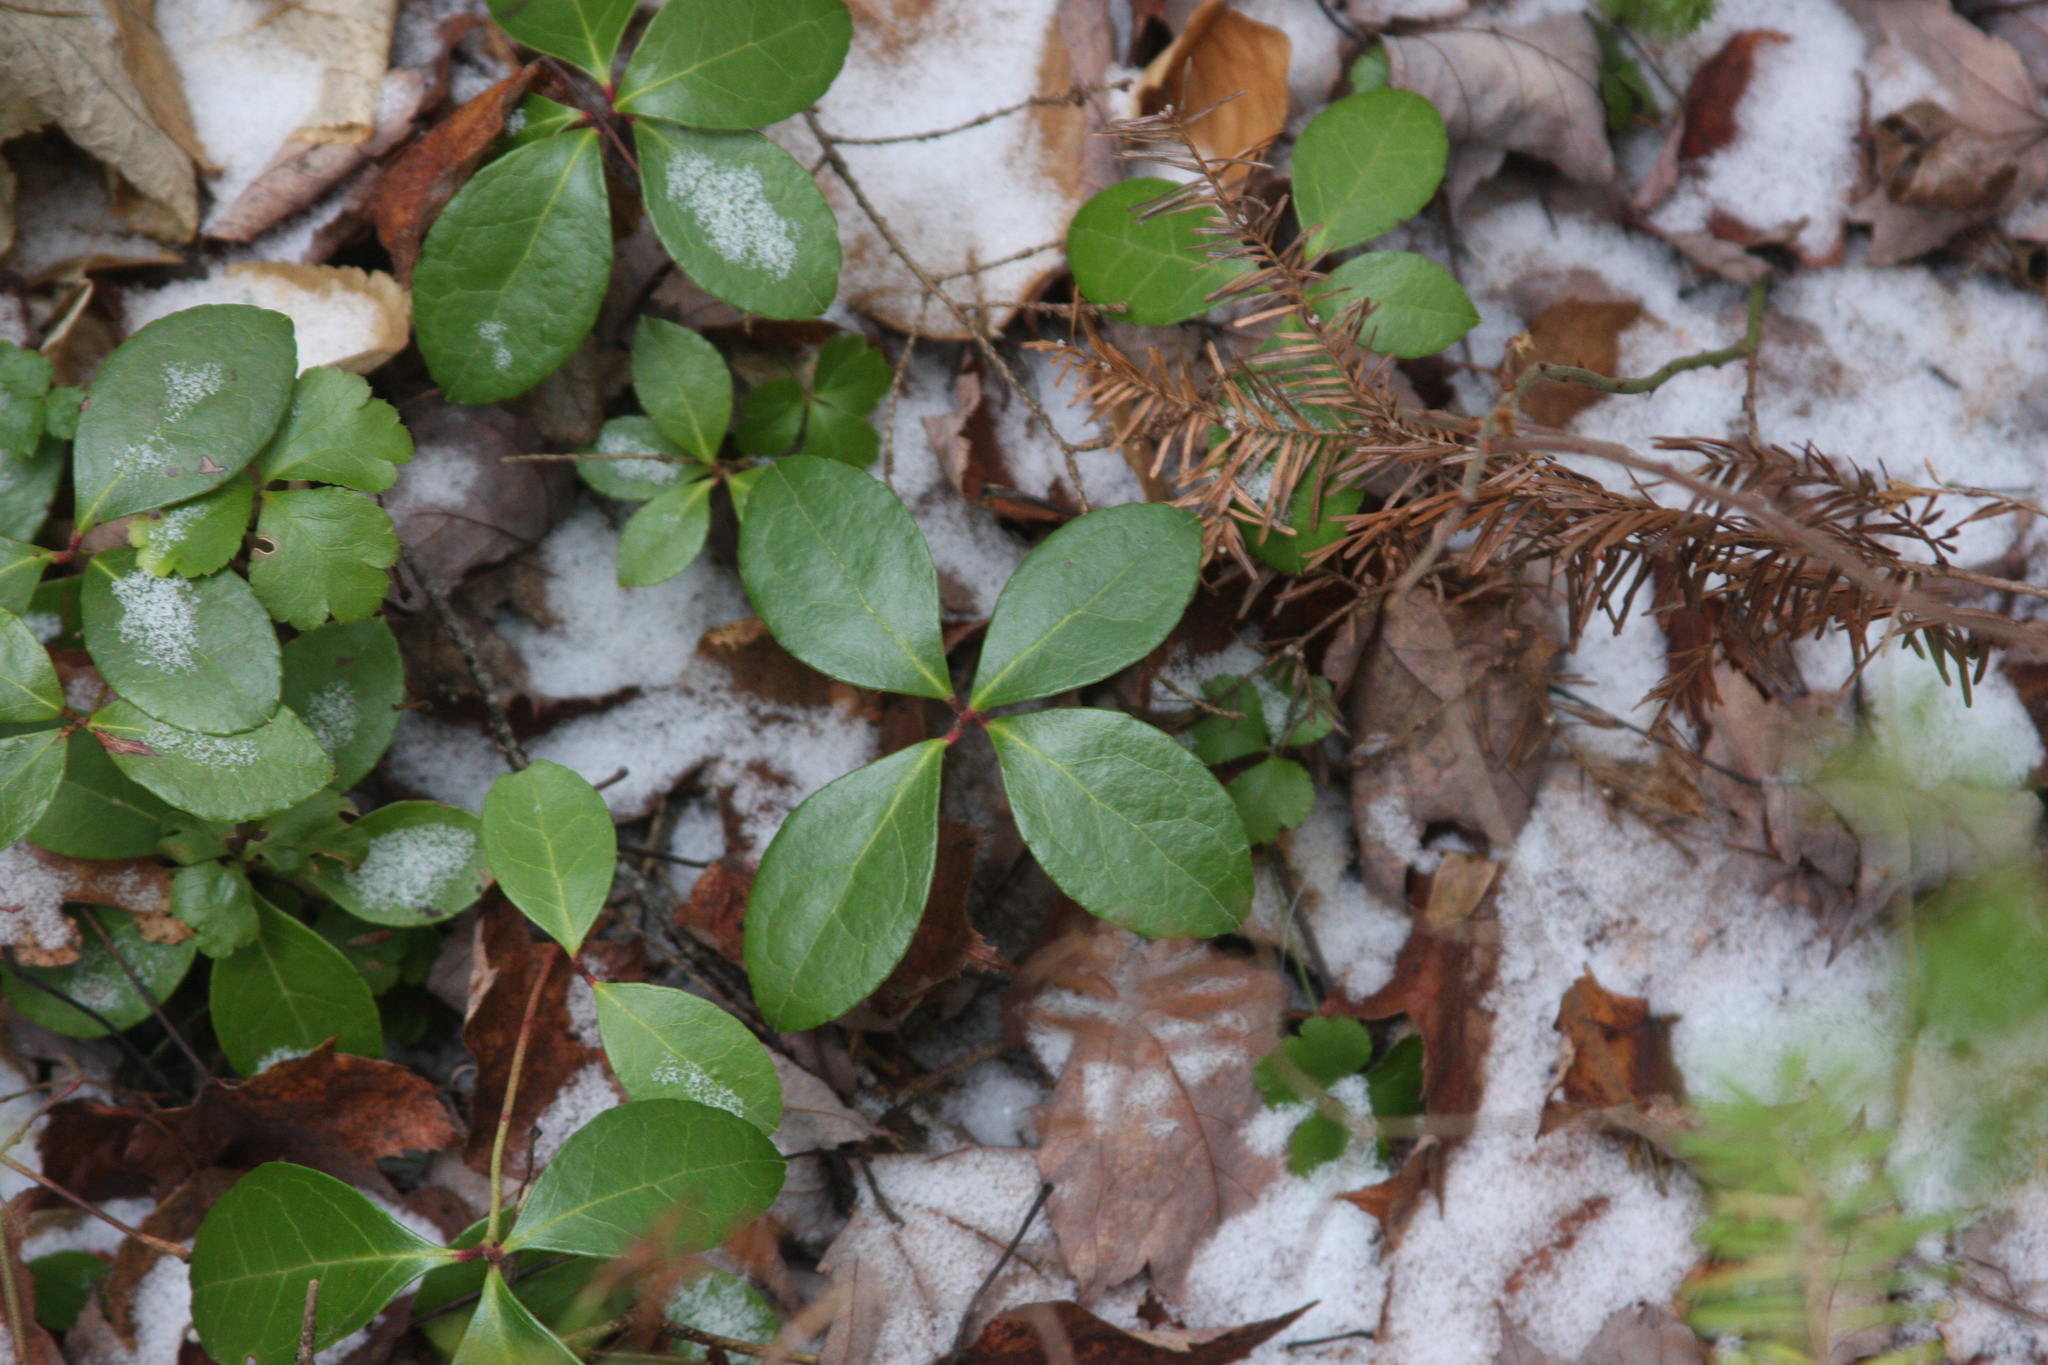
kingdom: Plantae
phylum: Tracheophyta
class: Magnoliopsida
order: Ericales
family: Ericaceae
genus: Gaultheria
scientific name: Gaultheria procumbens
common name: Checkerberry
